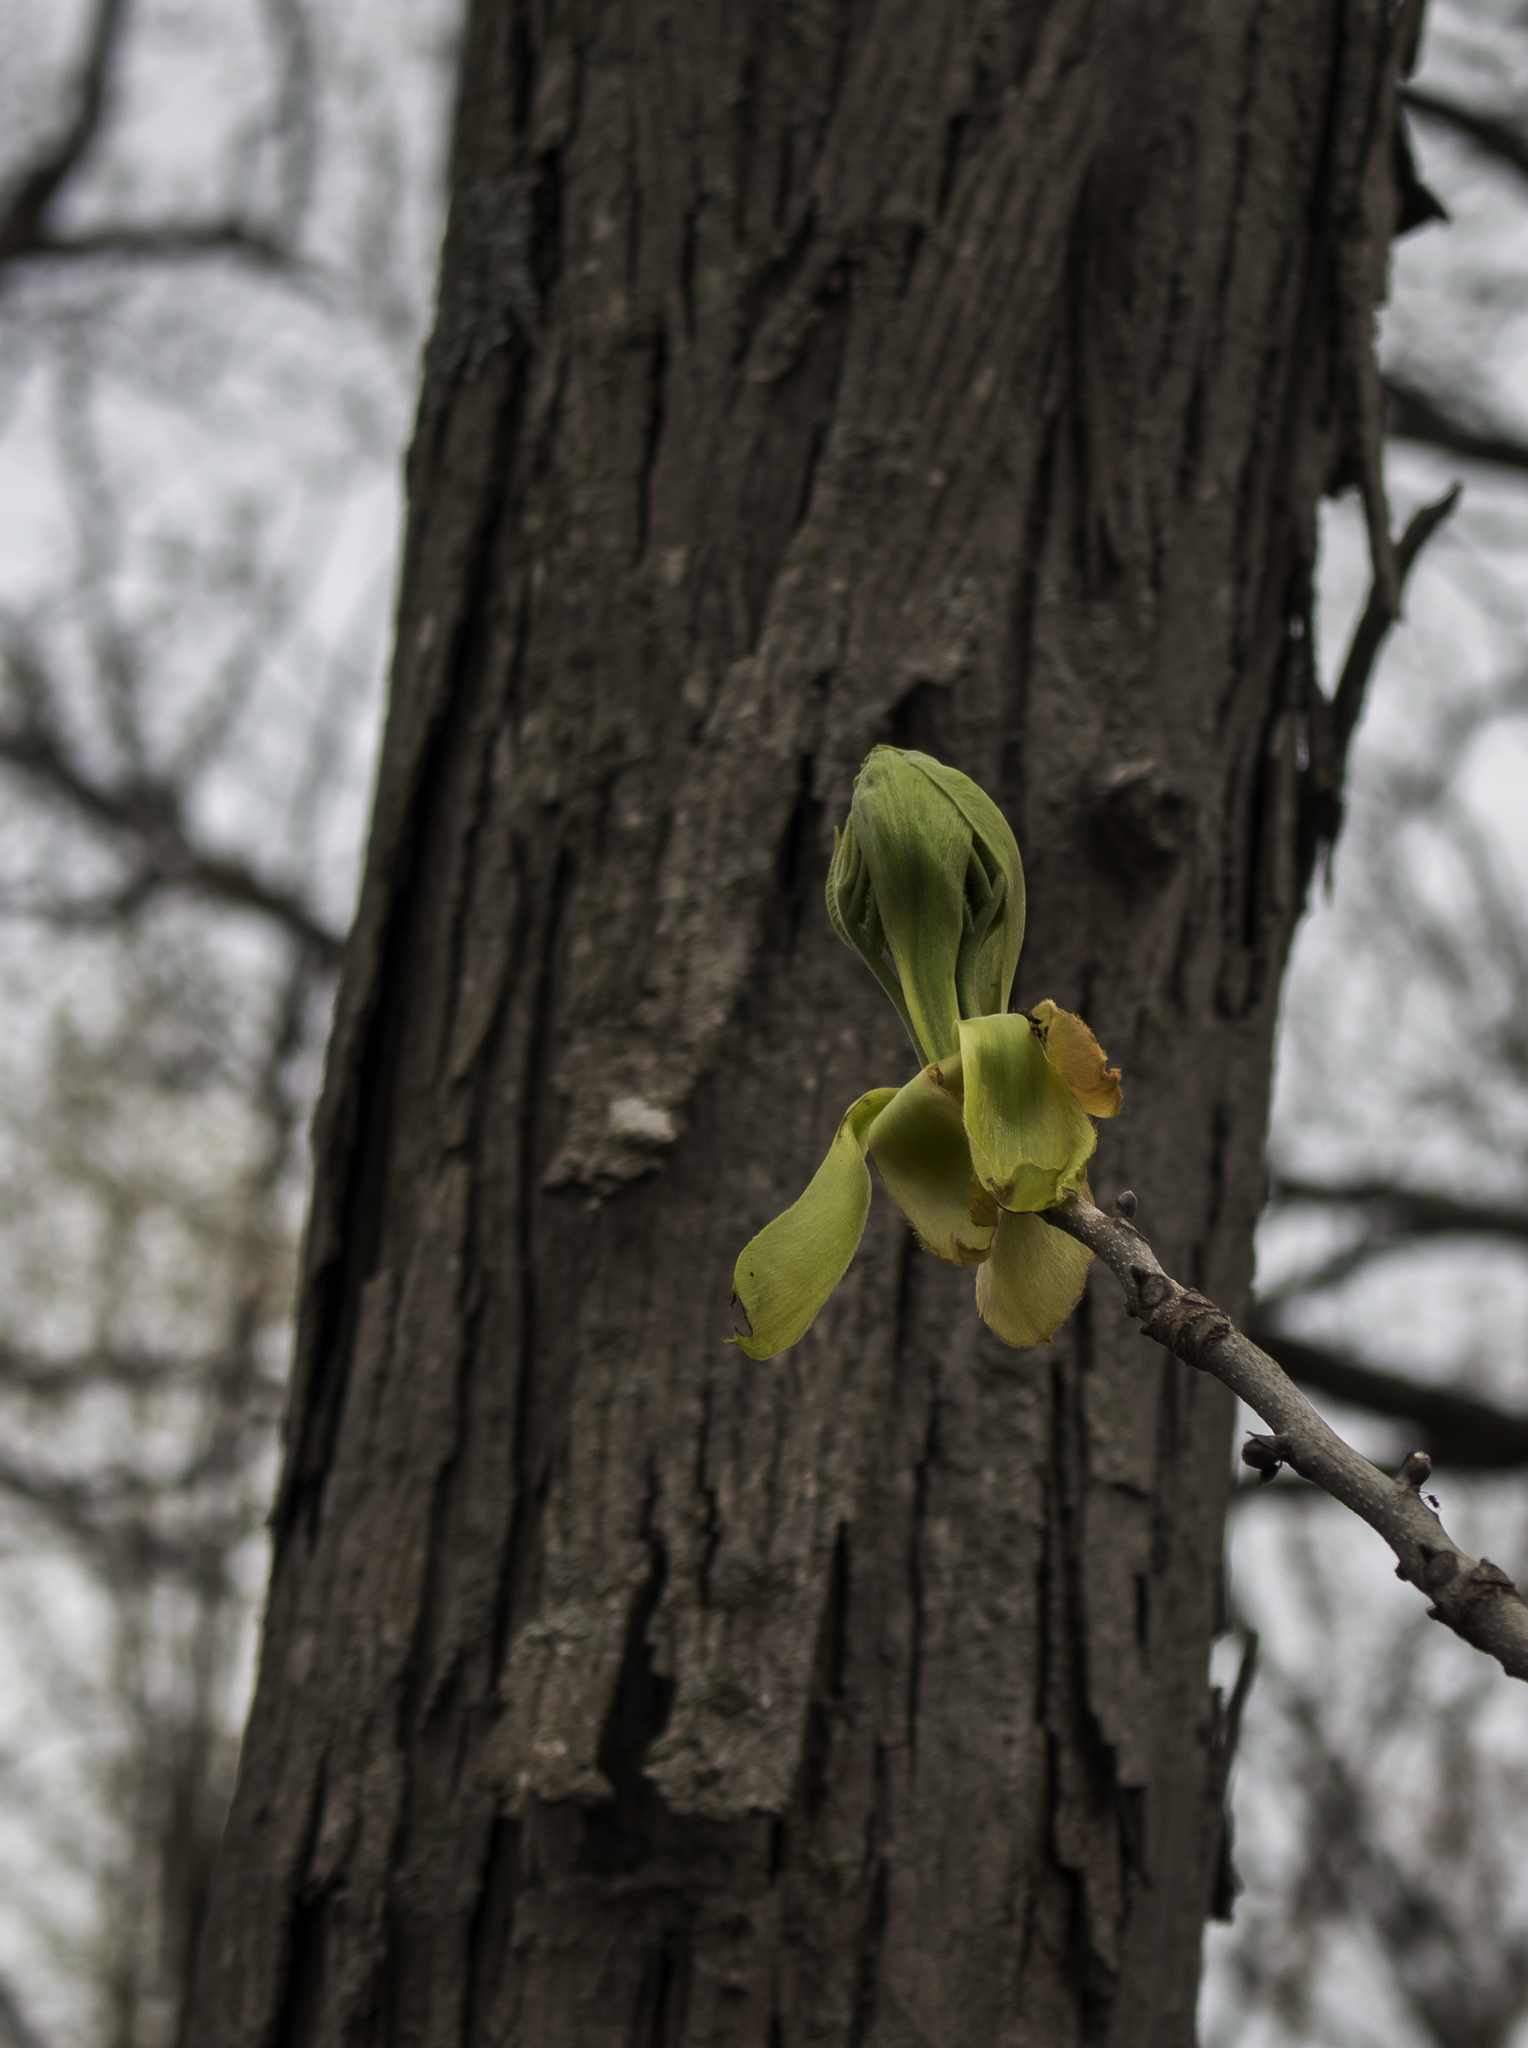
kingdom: Plantae
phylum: Tracheophyta
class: Magnoliopsida
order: Fagales
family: Juglandaceae
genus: Carya
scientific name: Carya ovata
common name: Shagbark hickory
